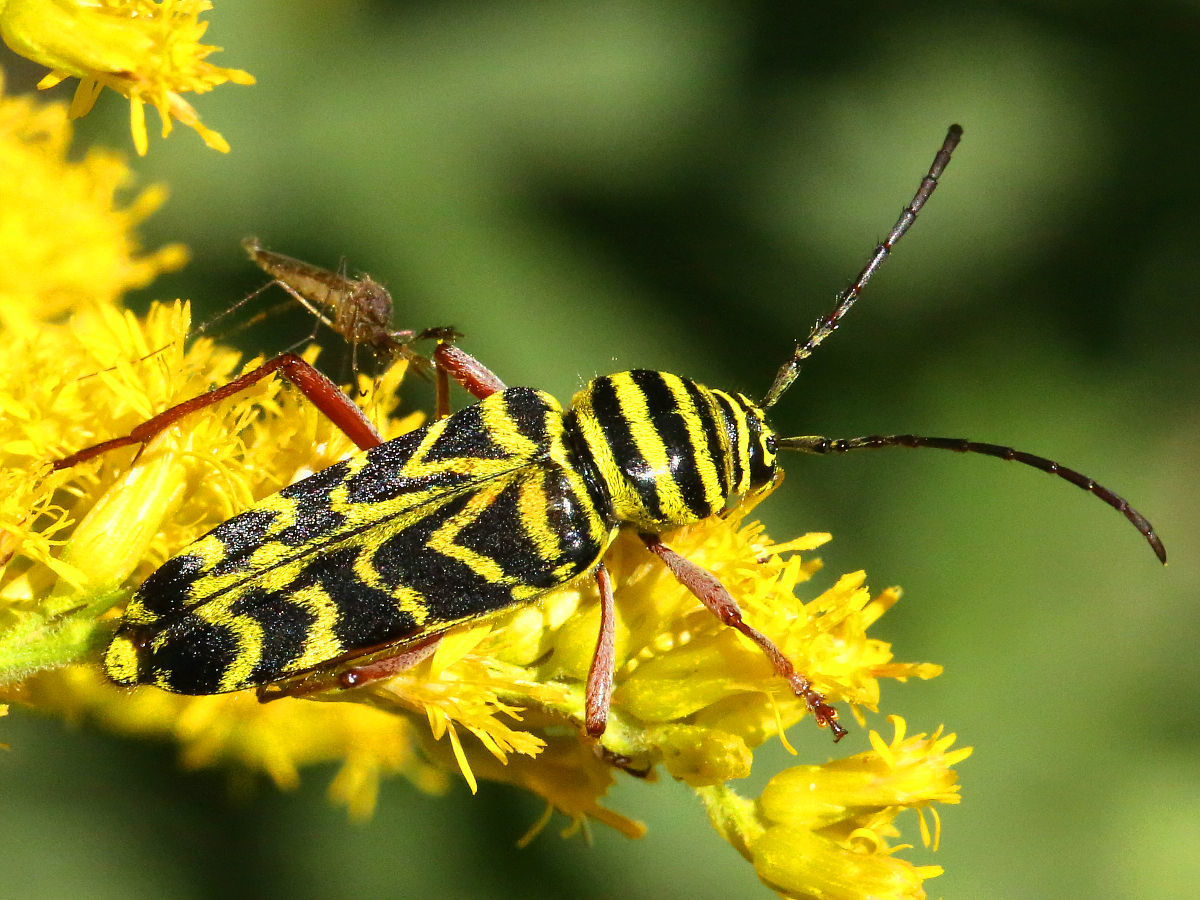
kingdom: Animalia
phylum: Arthropoda
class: Insecta
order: Coleoptera
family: Cerambycidae
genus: Megacyllene
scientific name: Megacyllene robiniae
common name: Locust borer
